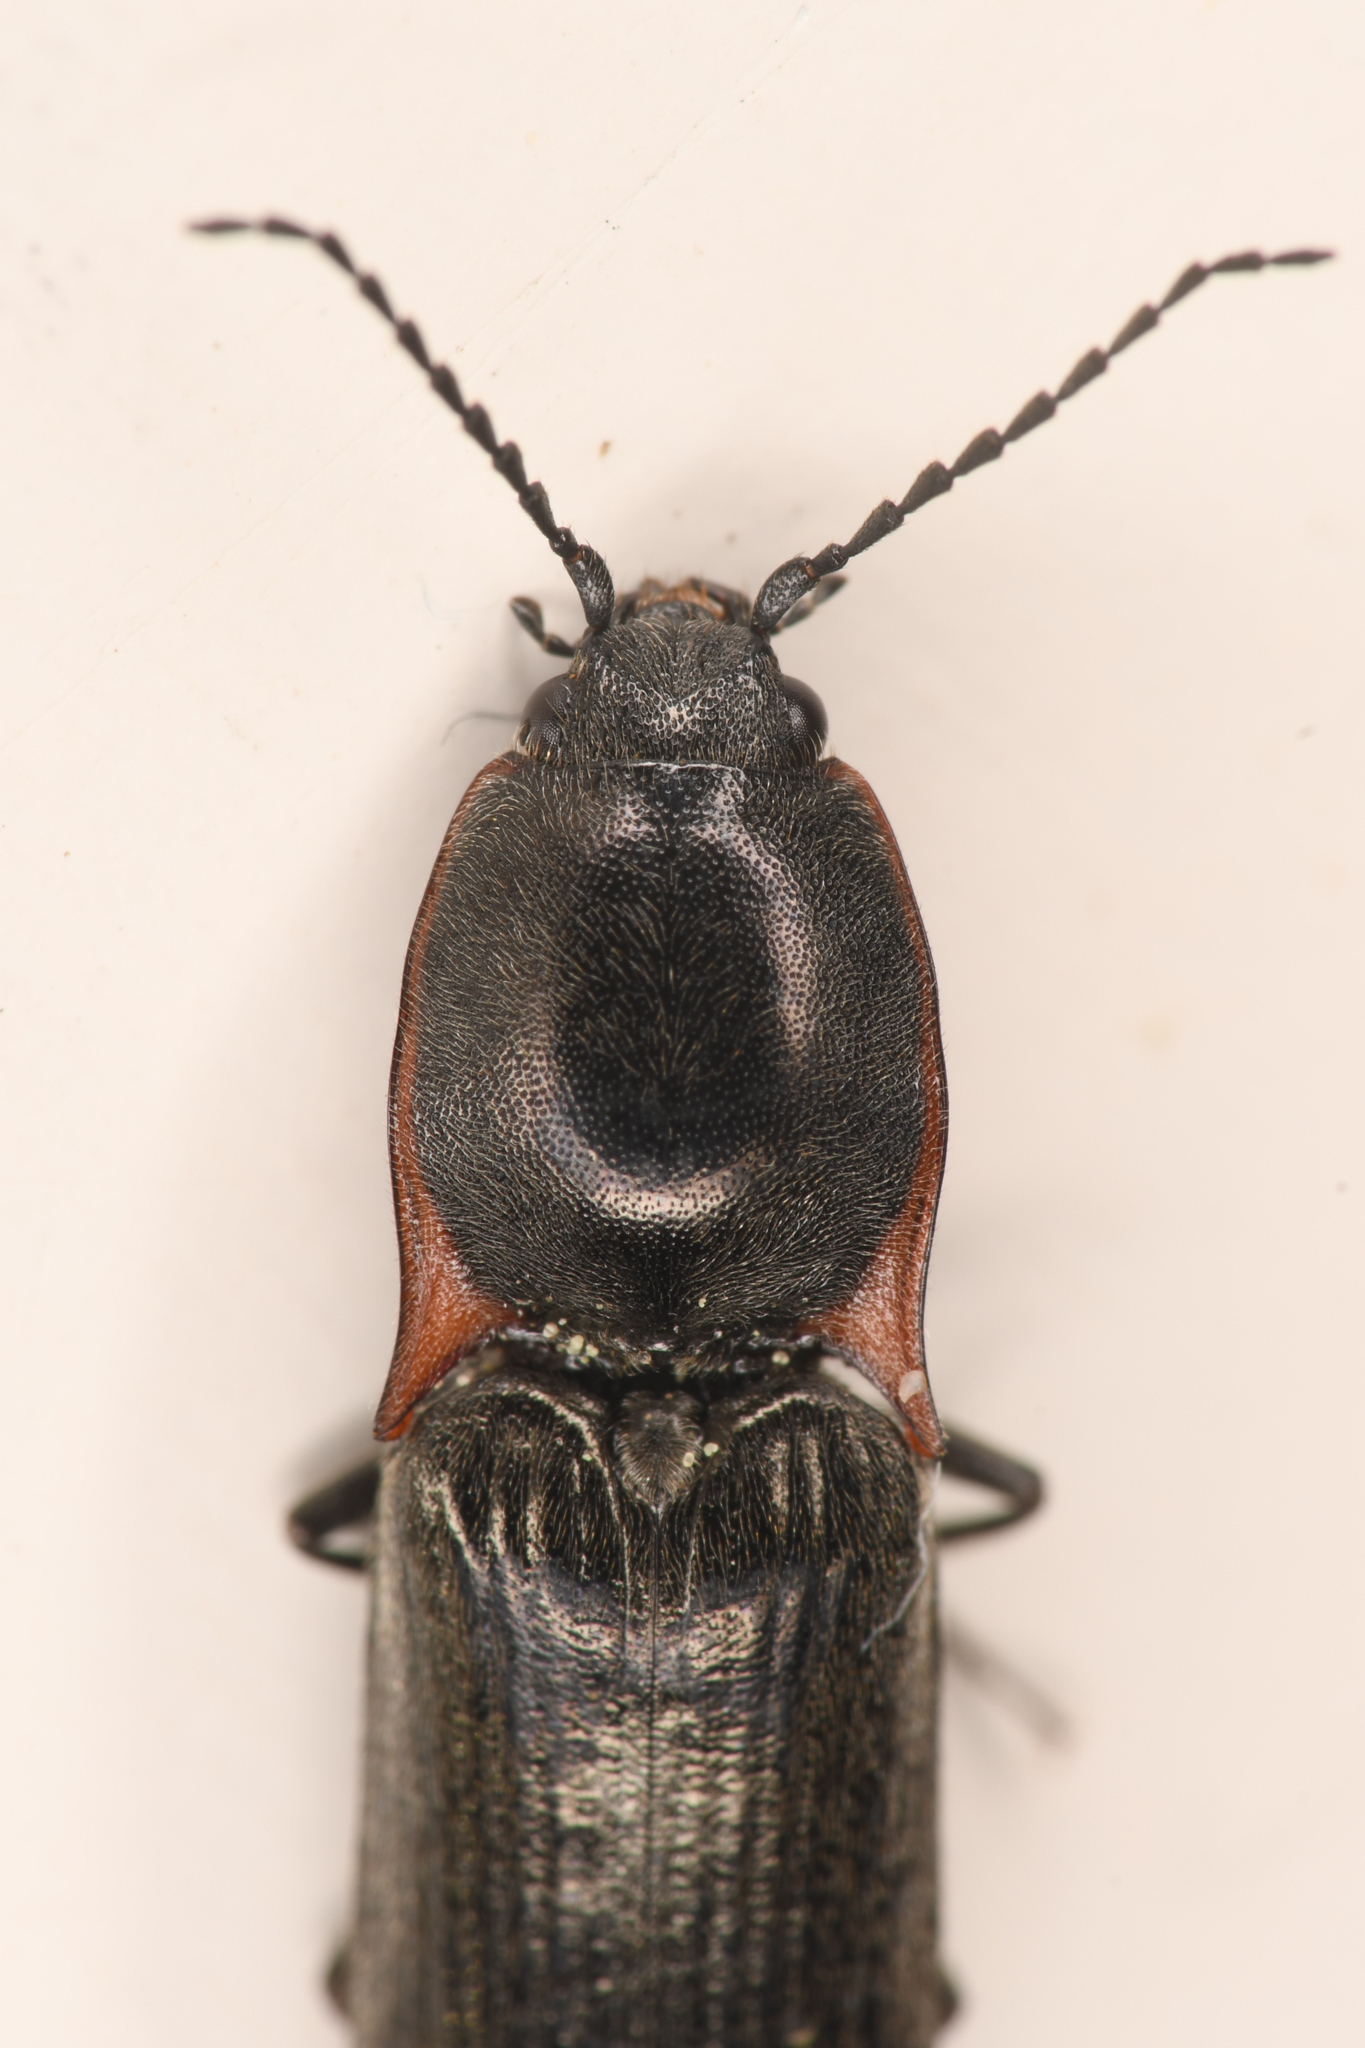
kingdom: Animalia
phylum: Arthropoda
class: Insecta
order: Coleoptera
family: Elateridae
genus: Acteniceromorphus
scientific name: Acteniceromorphus
